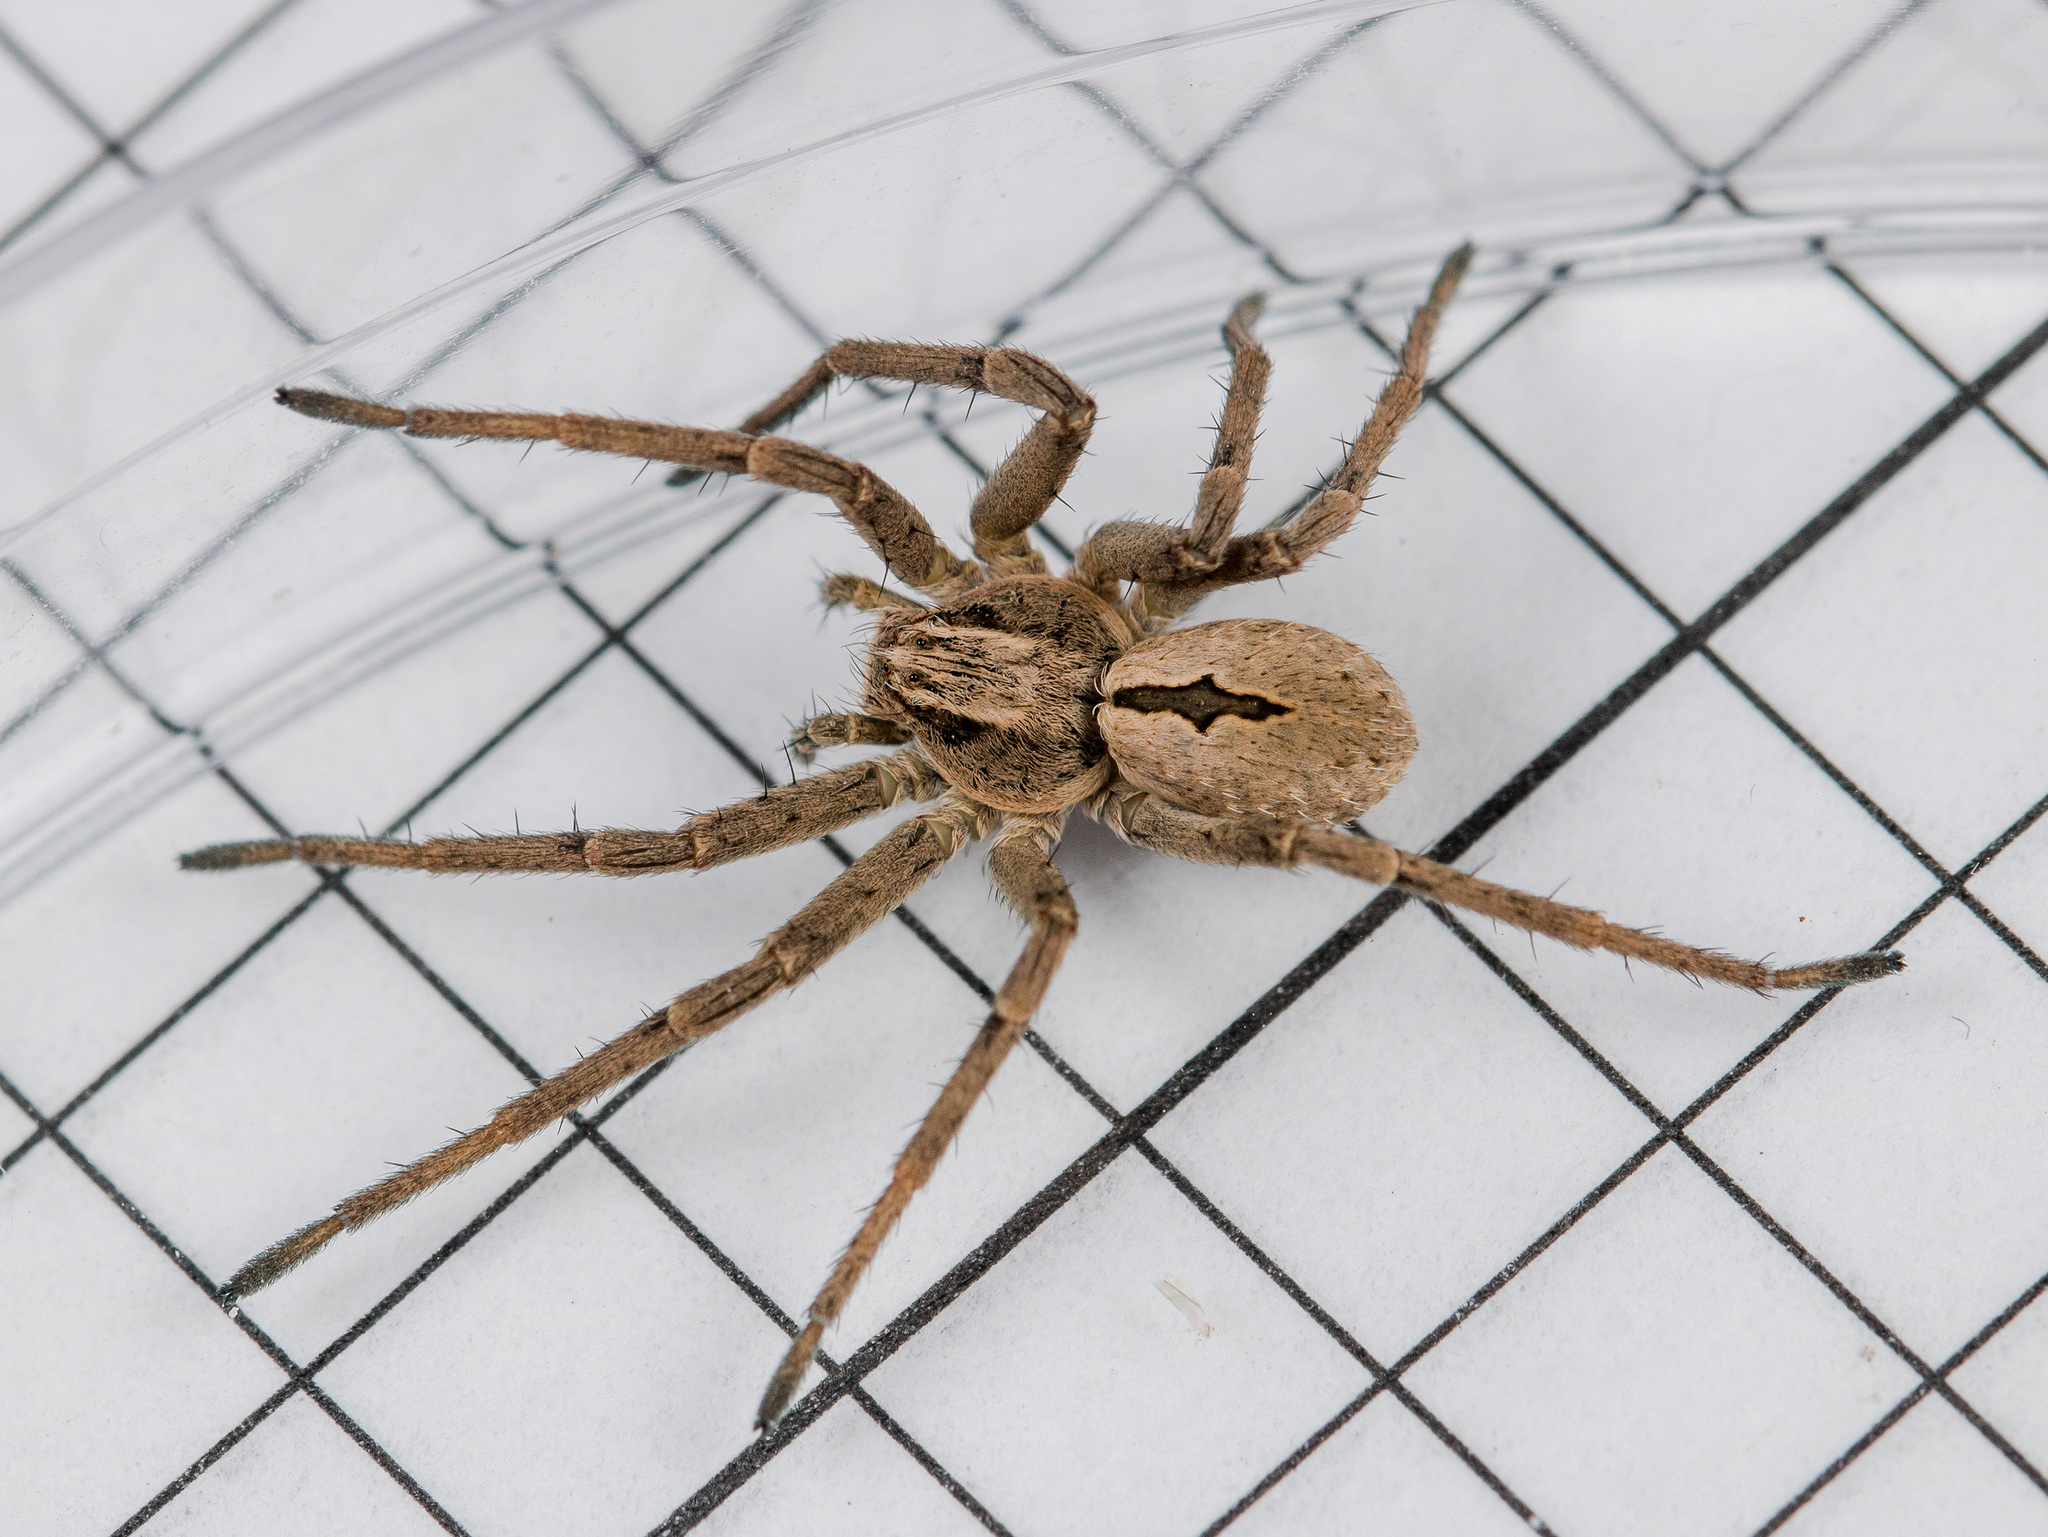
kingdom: Animalia
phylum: Arthropoda
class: Arachnida
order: Araneae
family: Philodromidae
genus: Thanatus
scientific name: Thanatus arcticus
